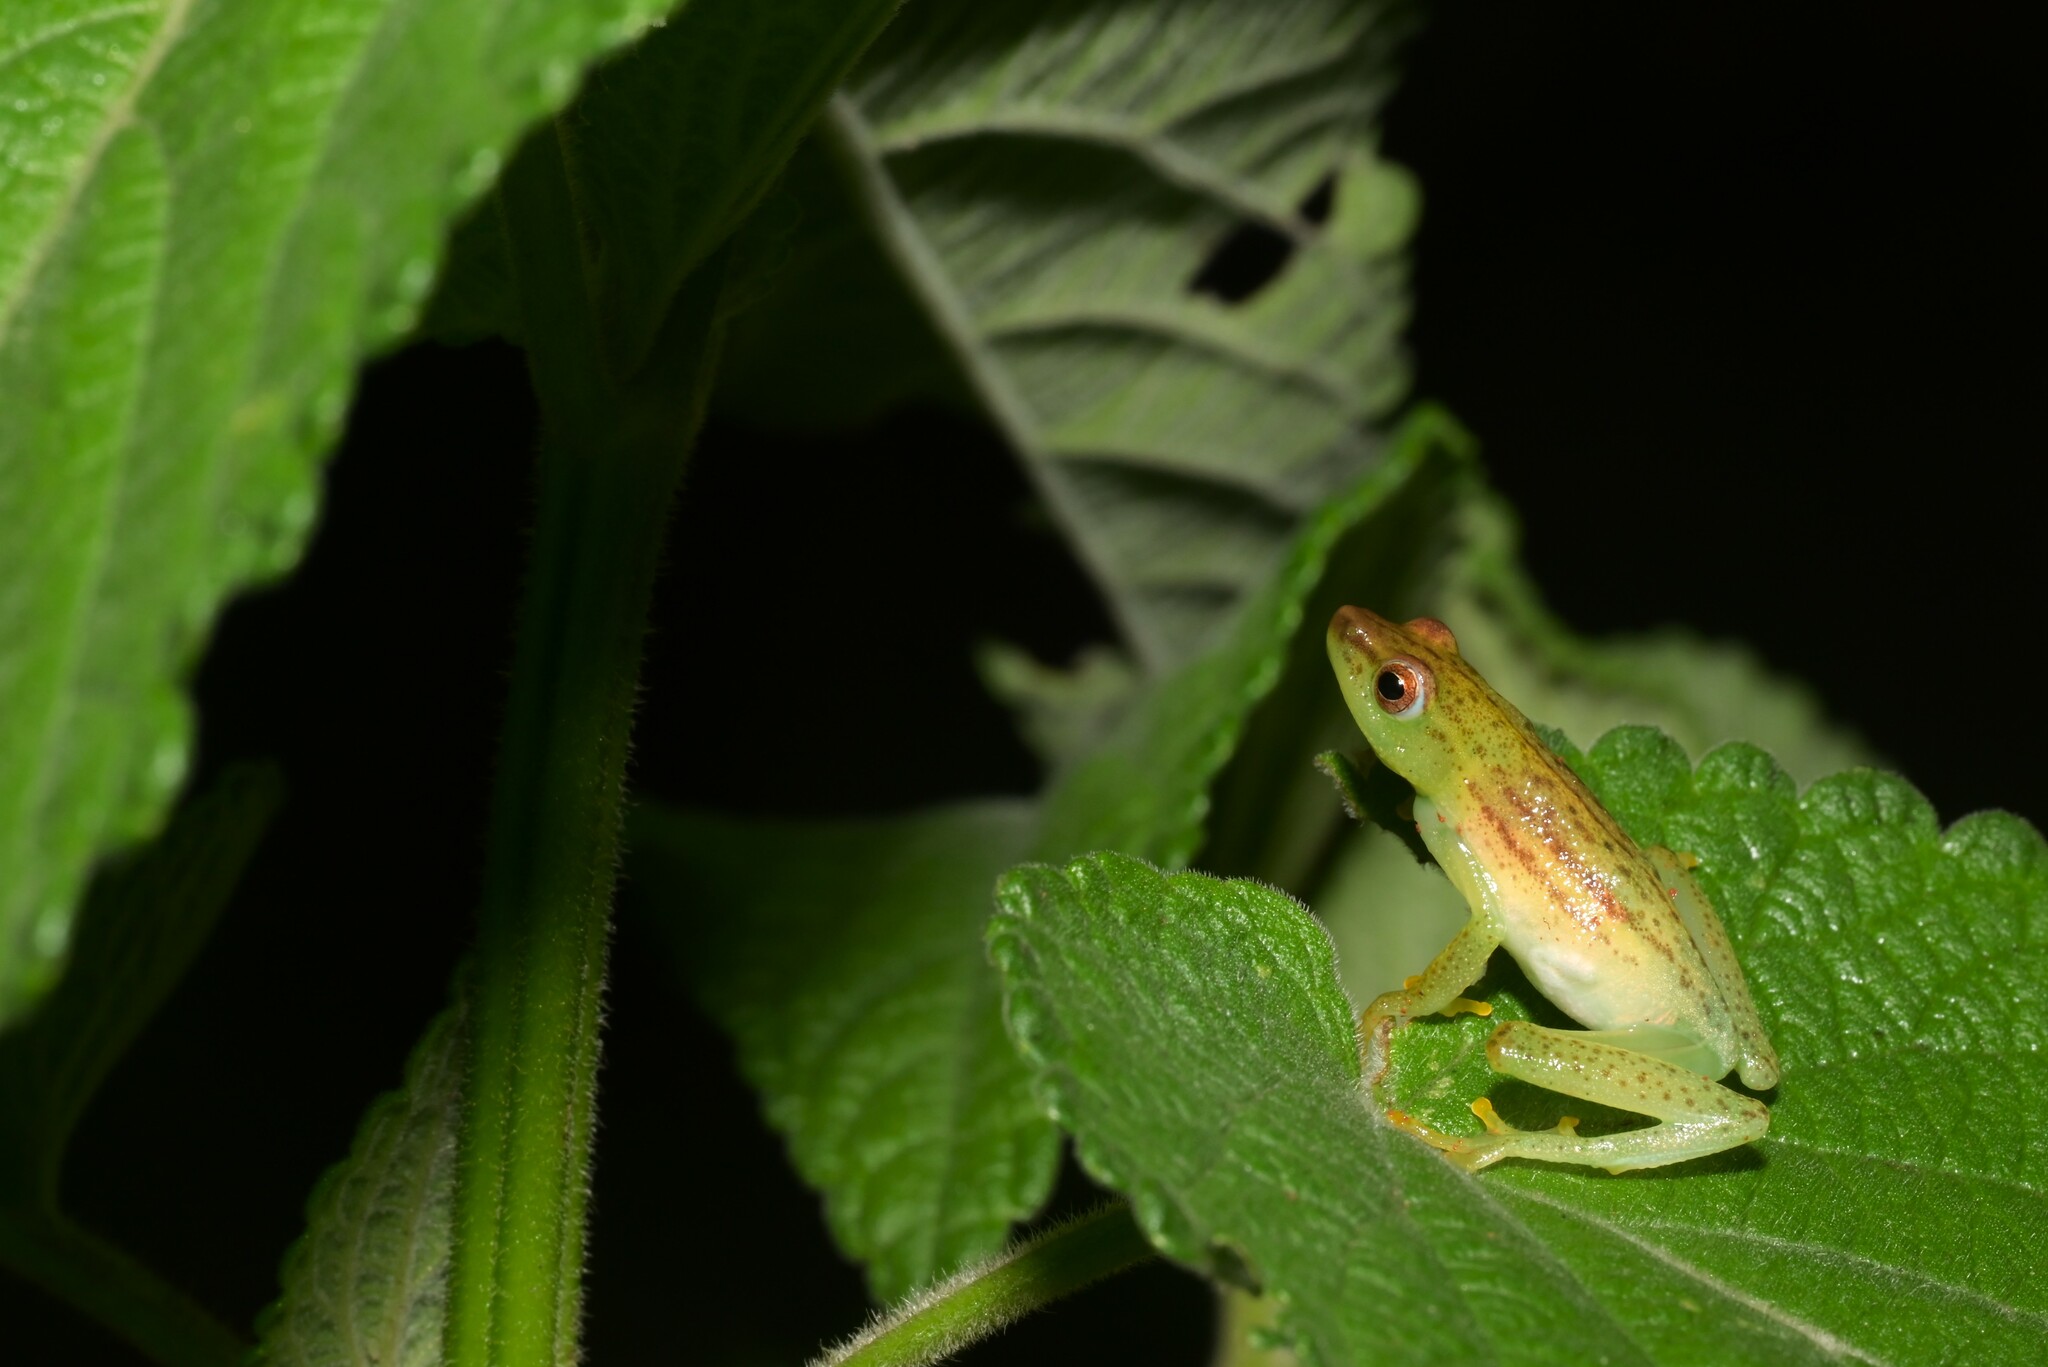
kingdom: Animalia
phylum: Chordata
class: Amphibia
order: Anura
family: Hyperoliidae
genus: Hyperolius
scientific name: Hyperolius howelli
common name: Howell's long reed frog
